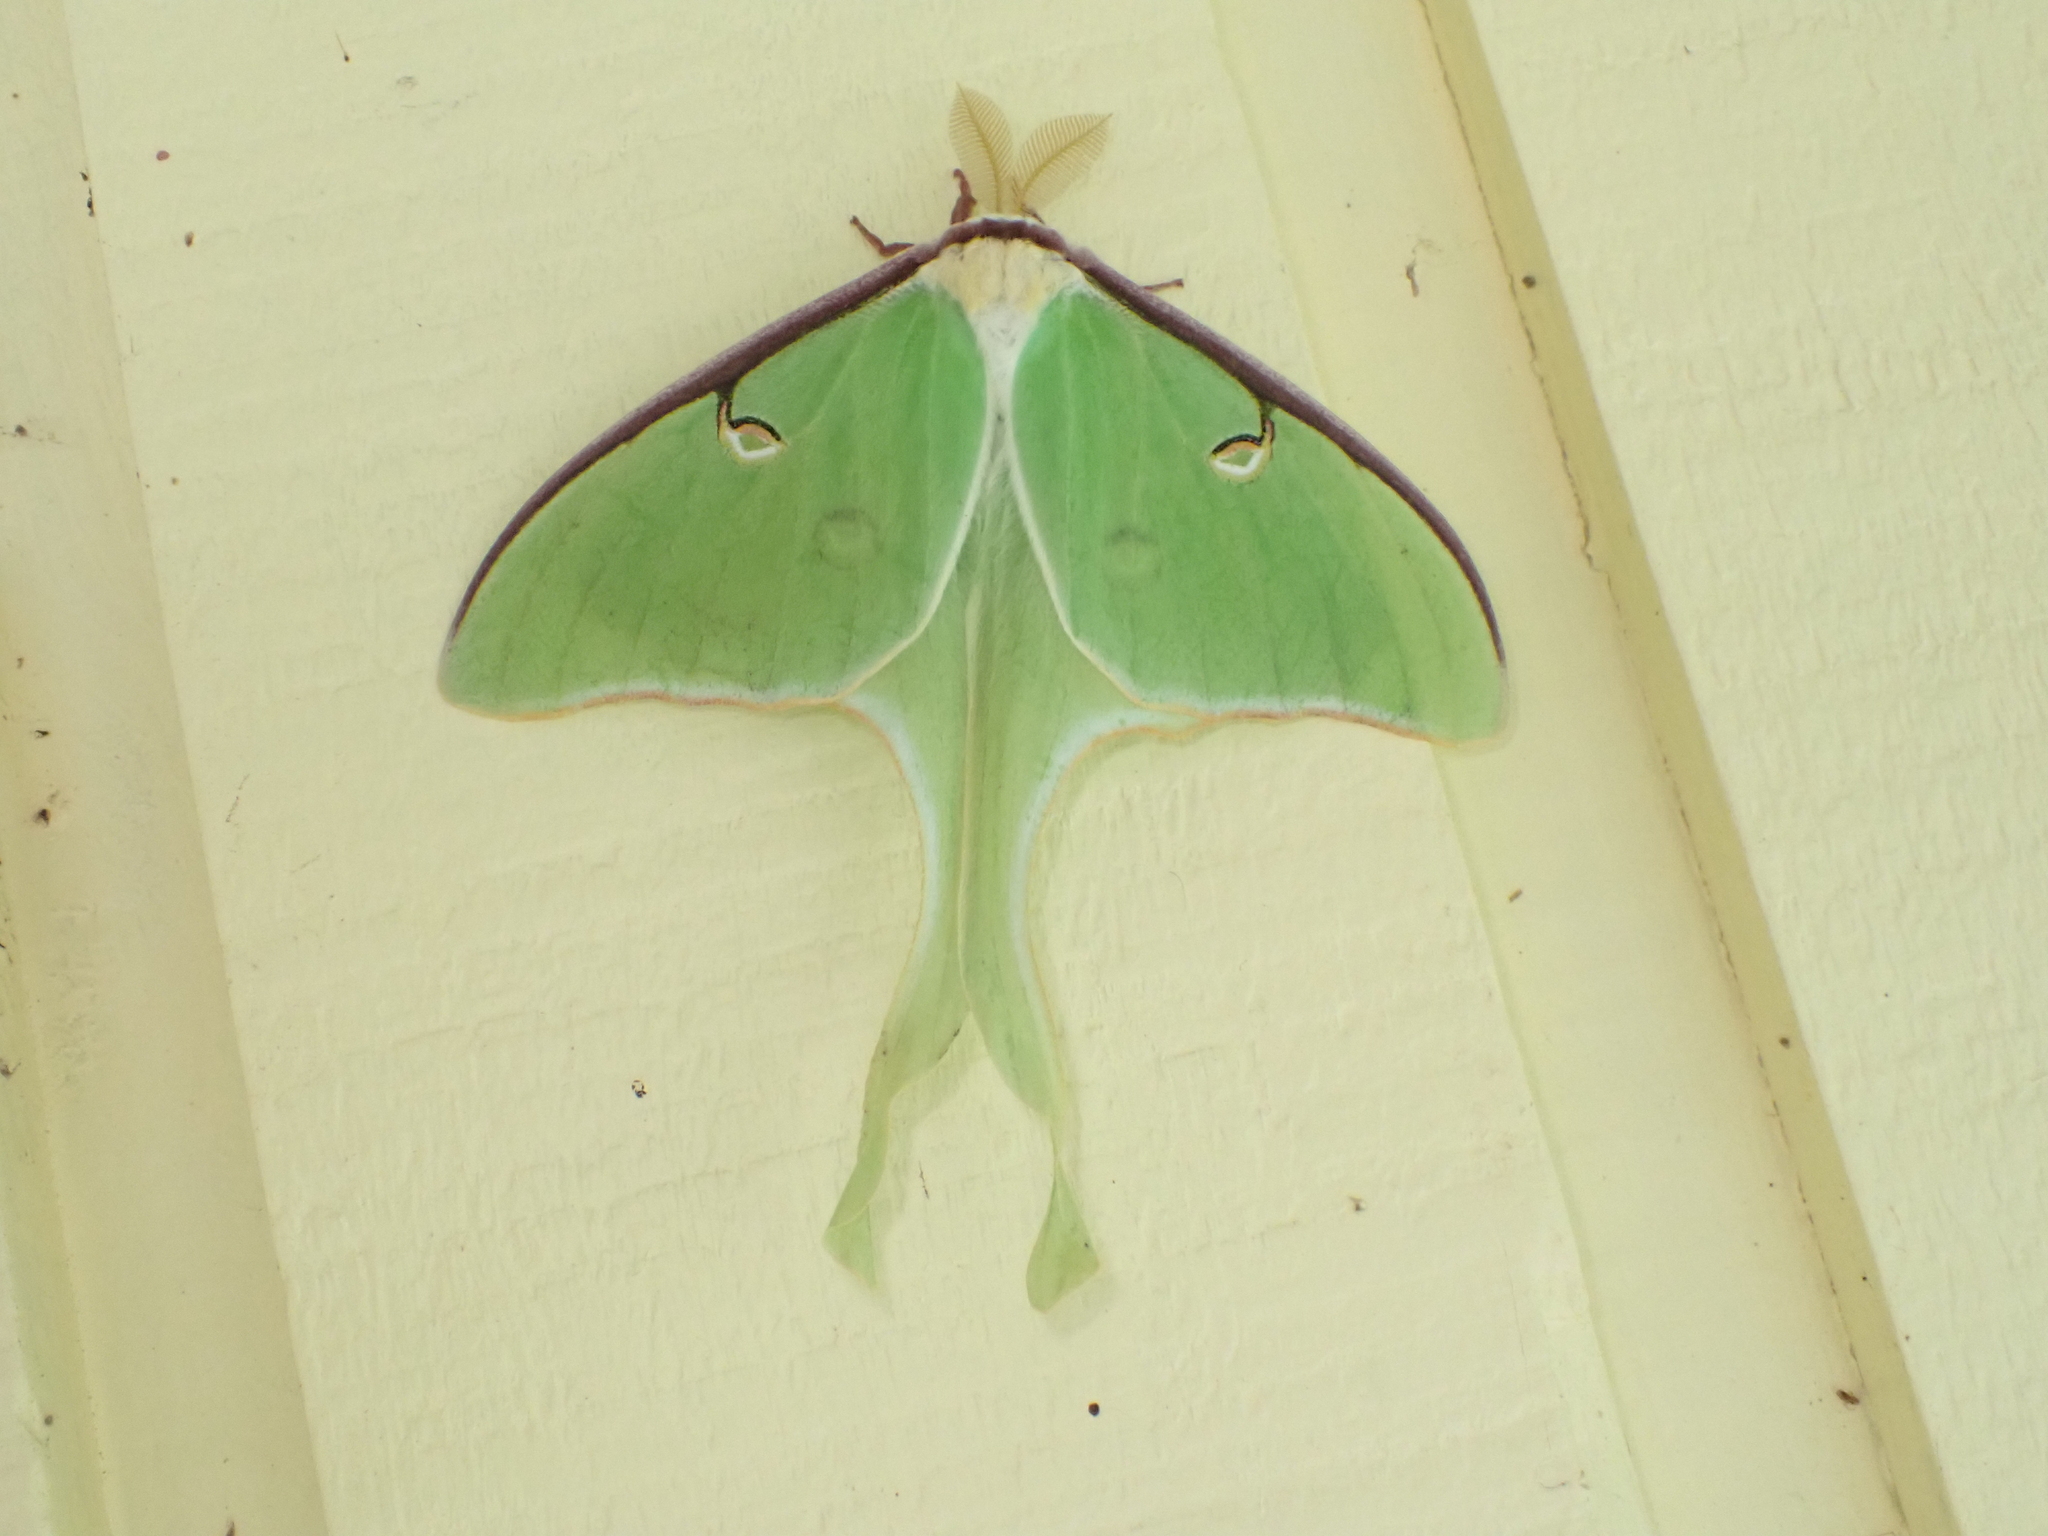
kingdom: Animalia
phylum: Arthropoda
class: Insecta
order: Lepidoptera
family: Saturniidae
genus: Actias
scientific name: Actias luna
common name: Luna moth
